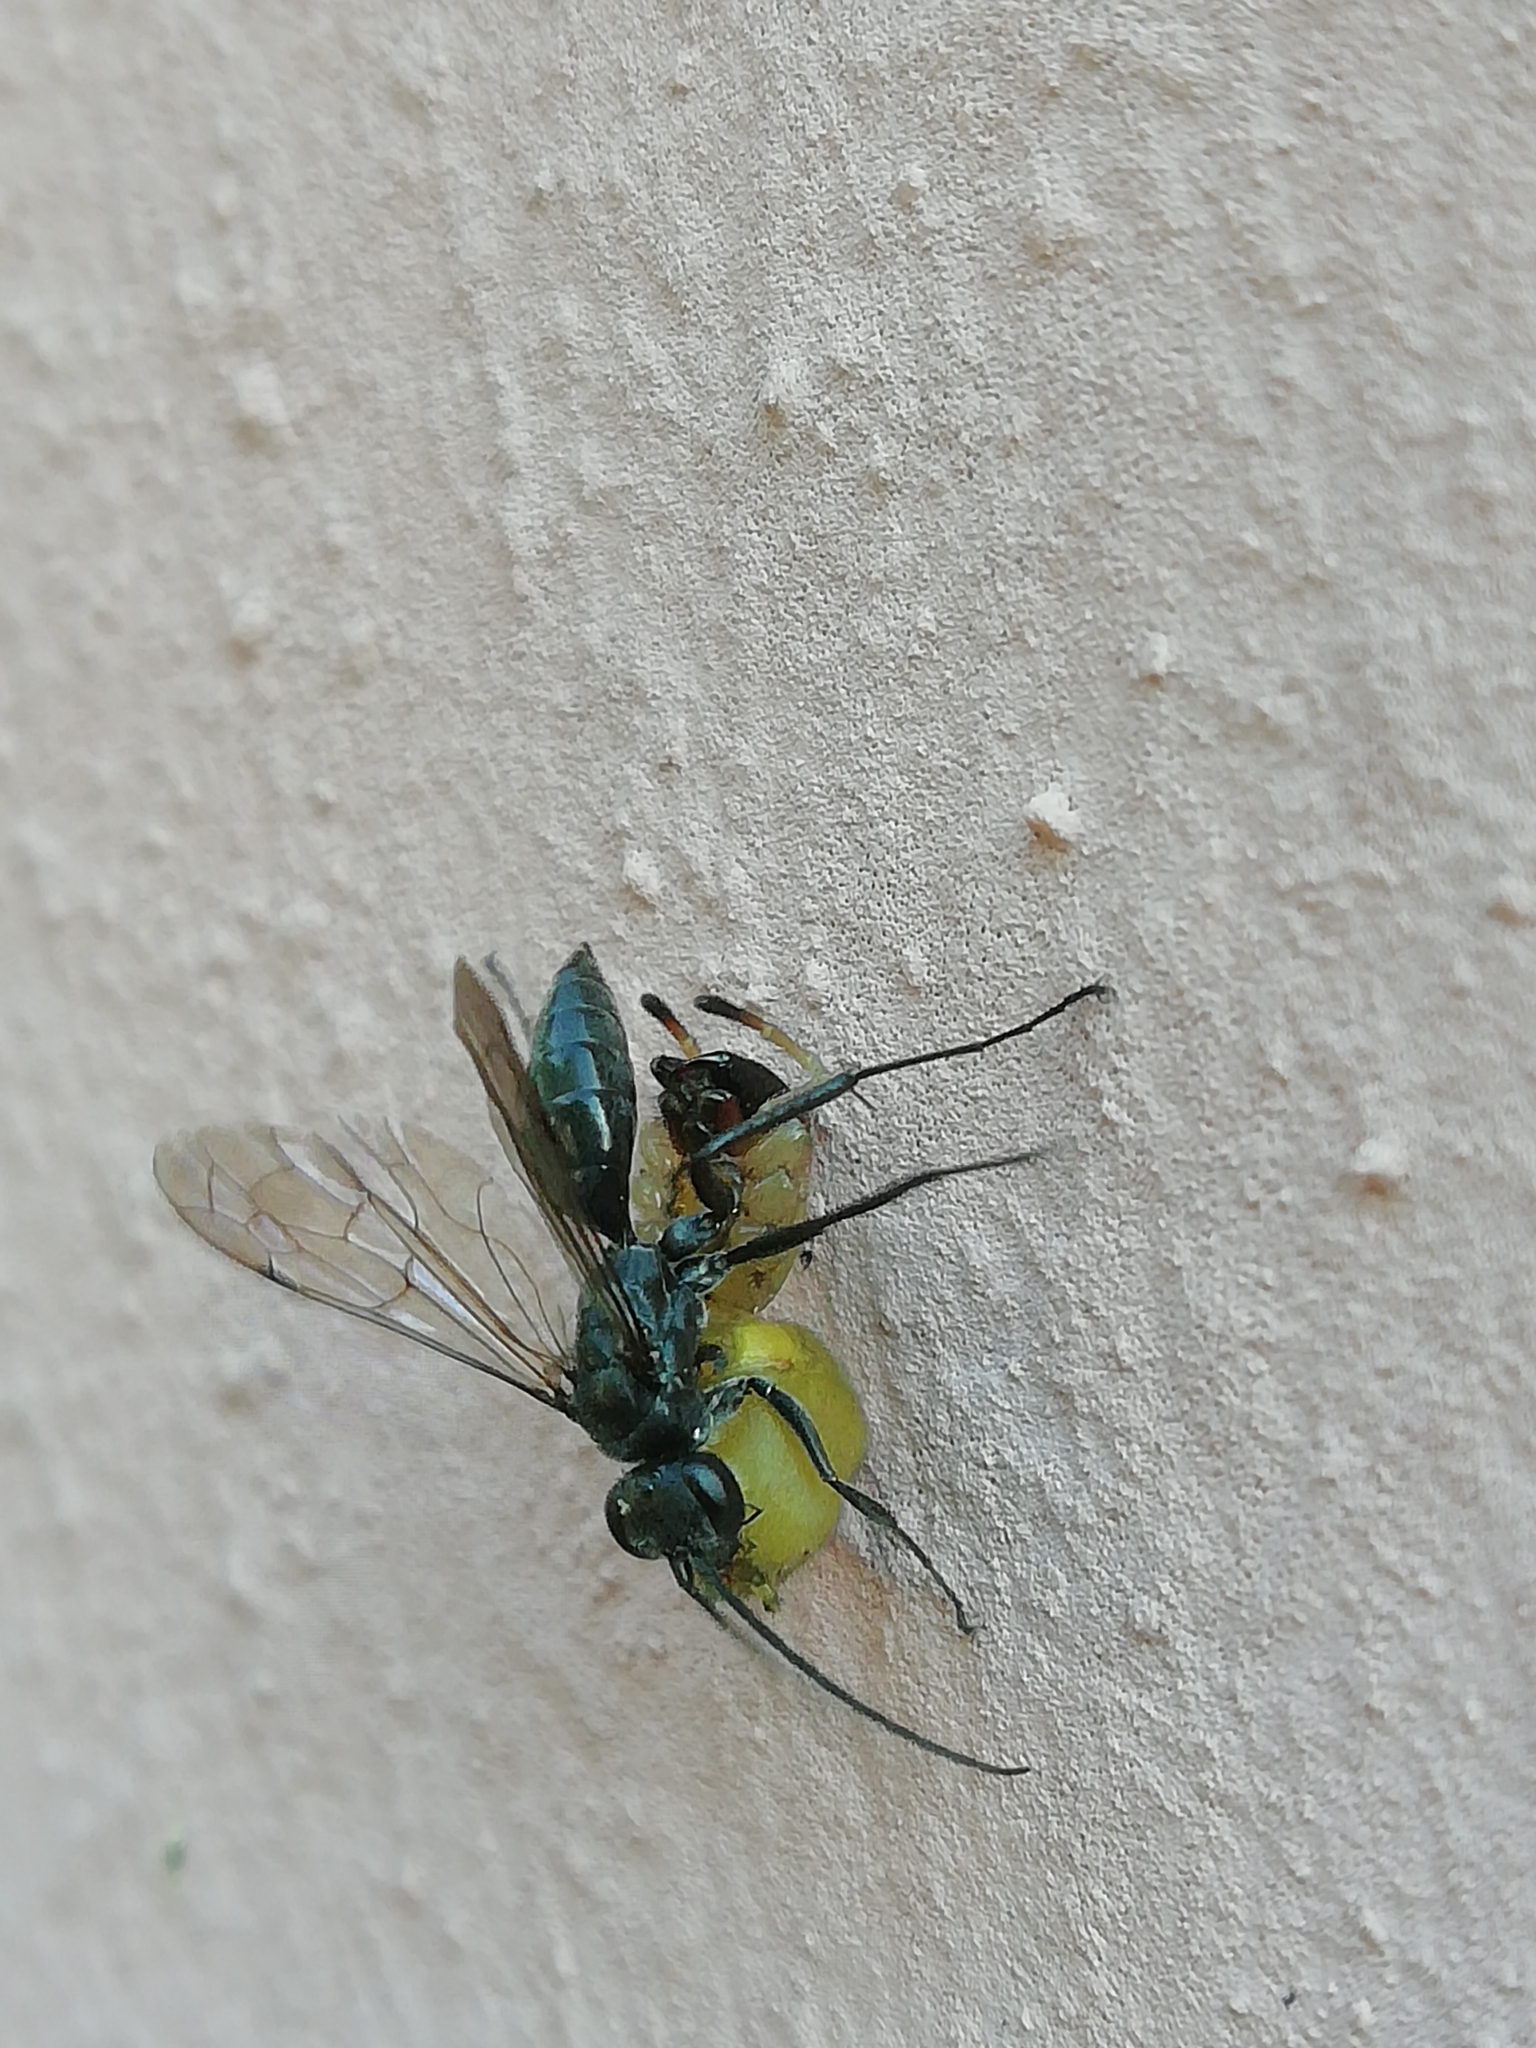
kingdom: Animalia
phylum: Arthropoda
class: Insecta
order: Hymenoptera
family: Pompilidae
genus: Auplopus
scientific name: Auplopus carbonarius
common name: Spider wasp
